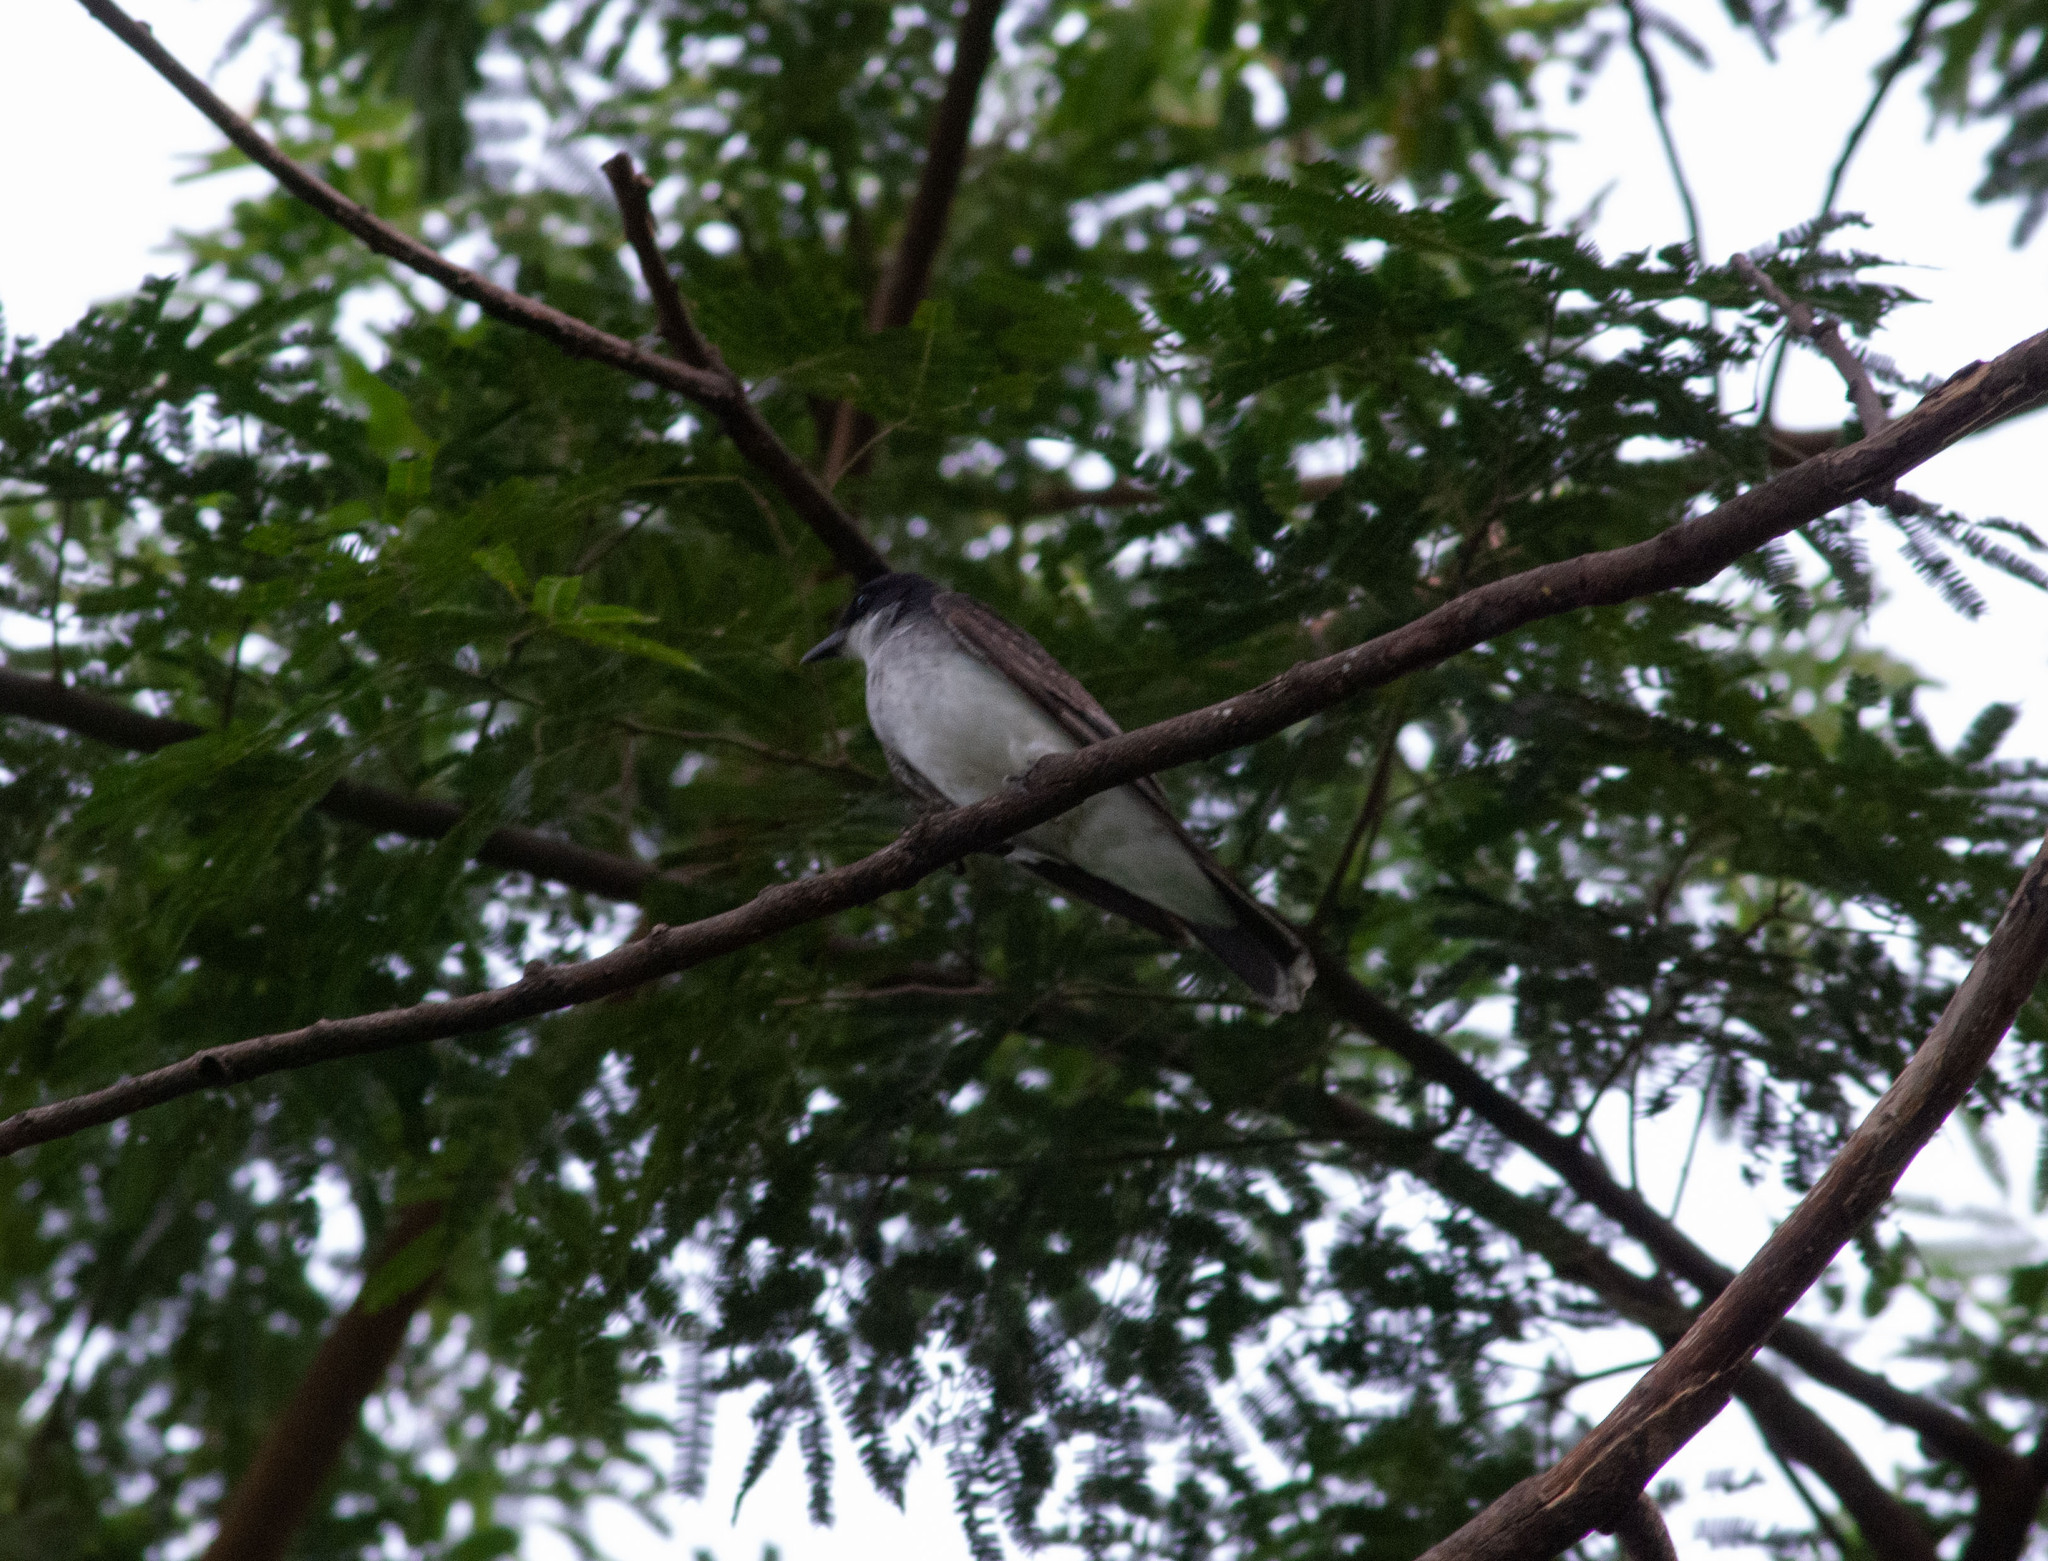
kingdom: Animalia
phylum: Chordata
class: Aves
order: Passeriformes
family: Tyrannidae
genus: Tyrannus
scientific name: Tyrannus tyrannus
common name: Eastern kingbird
